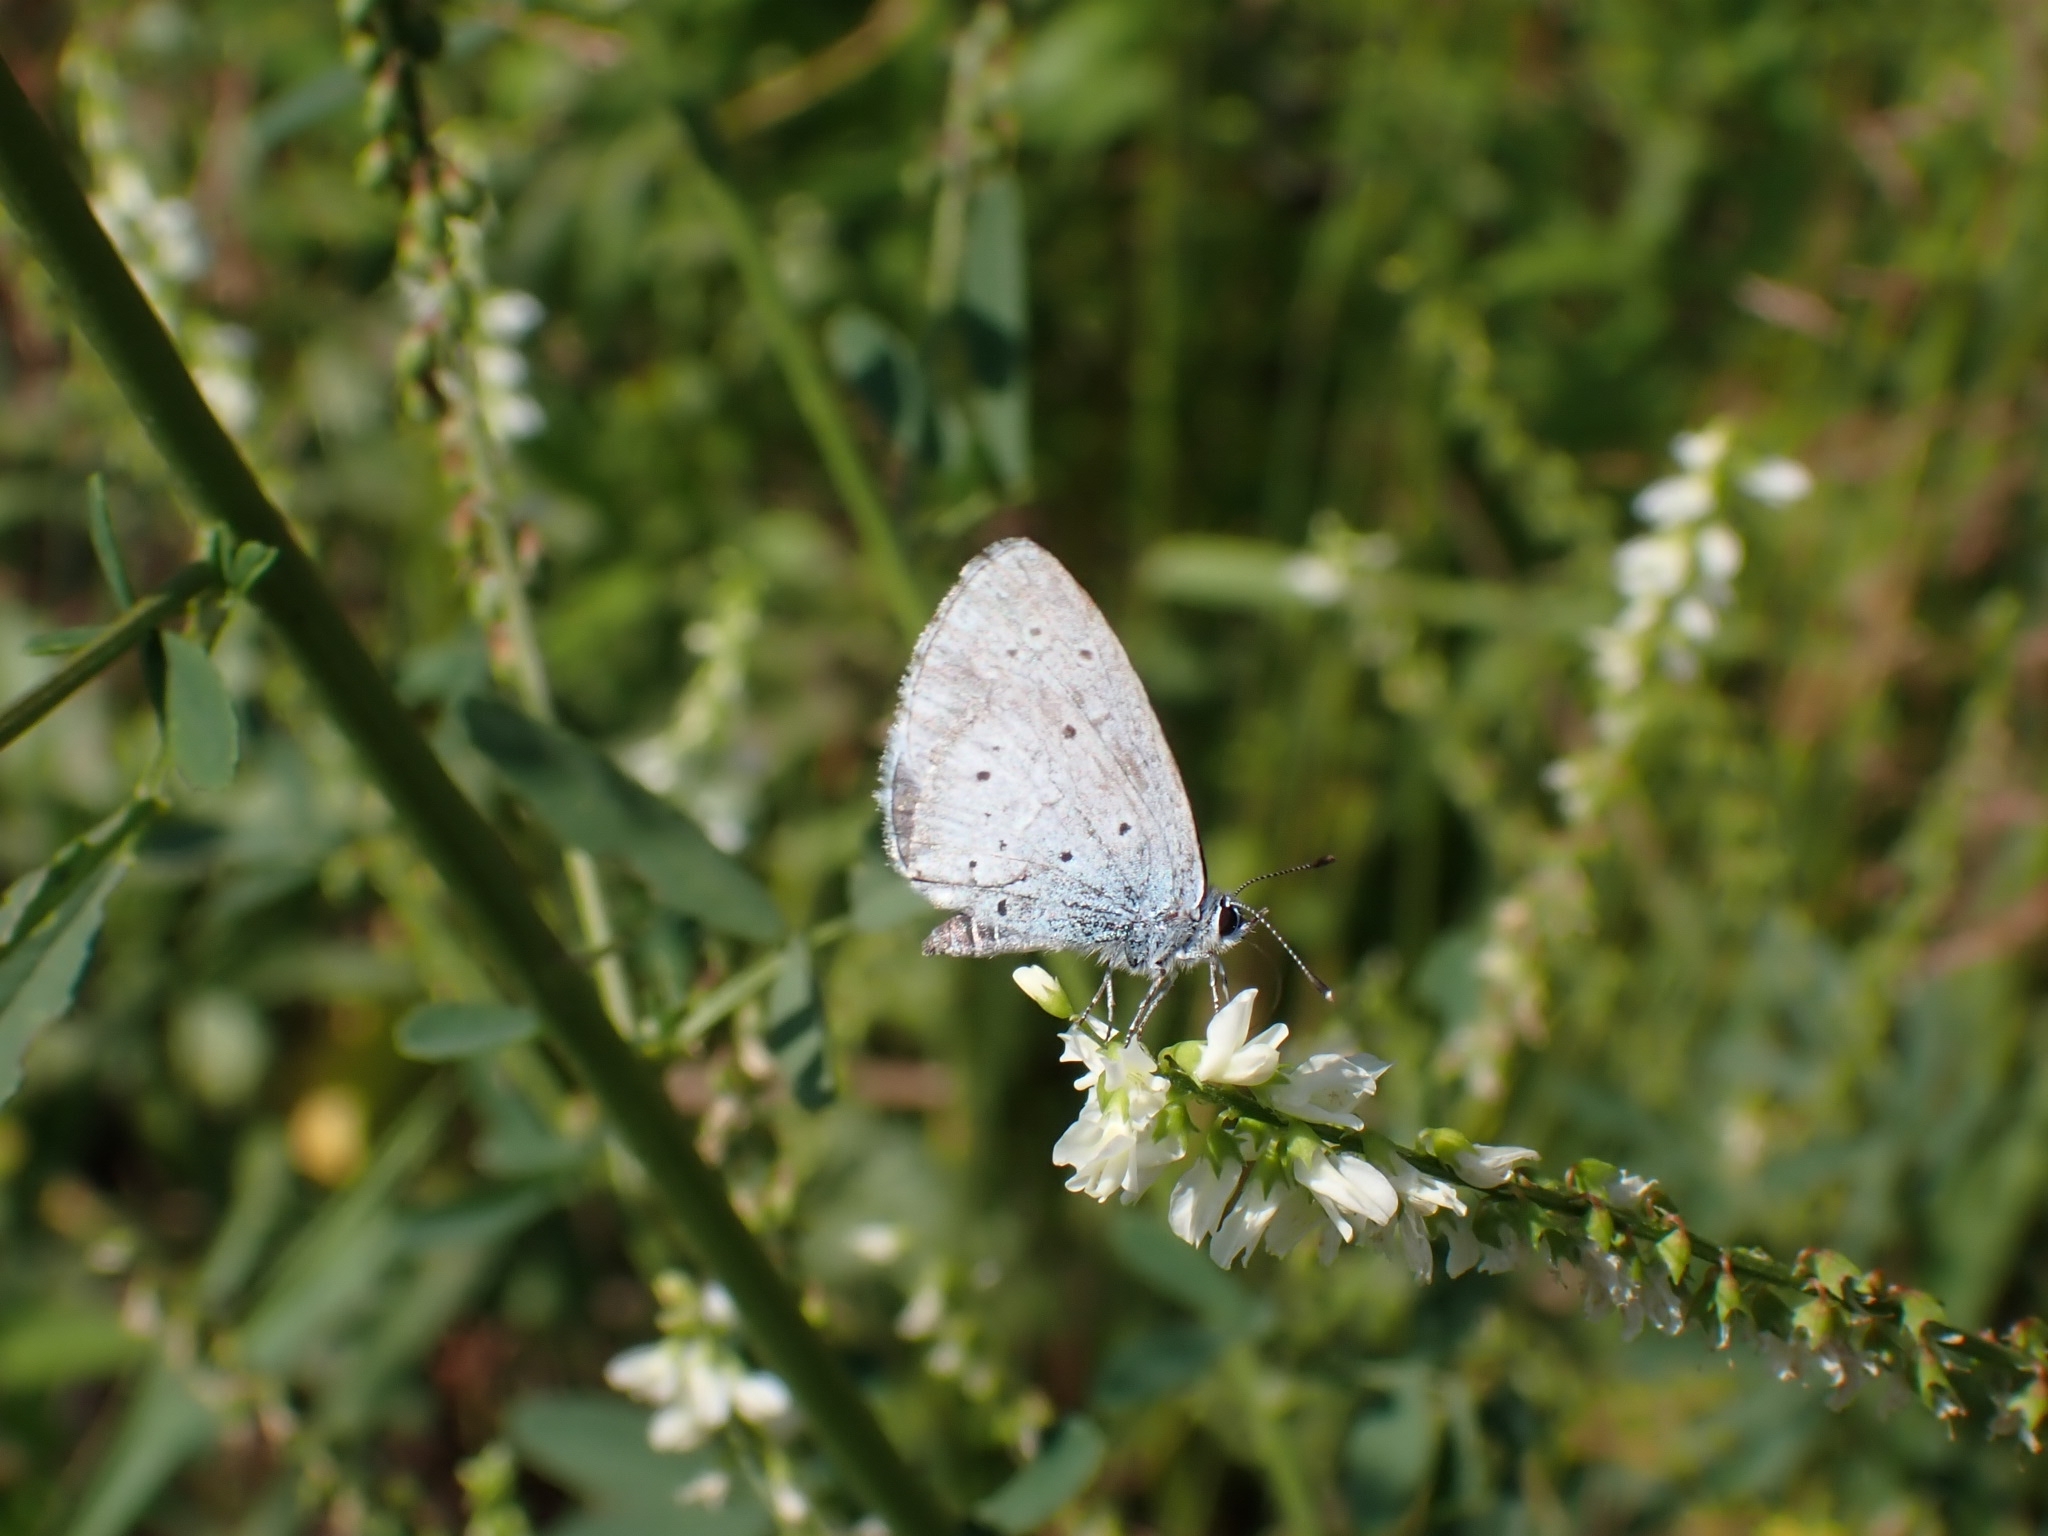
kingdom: Animalia
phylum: Arthropoda
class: Insecta
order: Lepidoptera
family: Lycaenidae
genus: Celastrina
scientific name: Celastrina argiolus
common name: Holly blue
